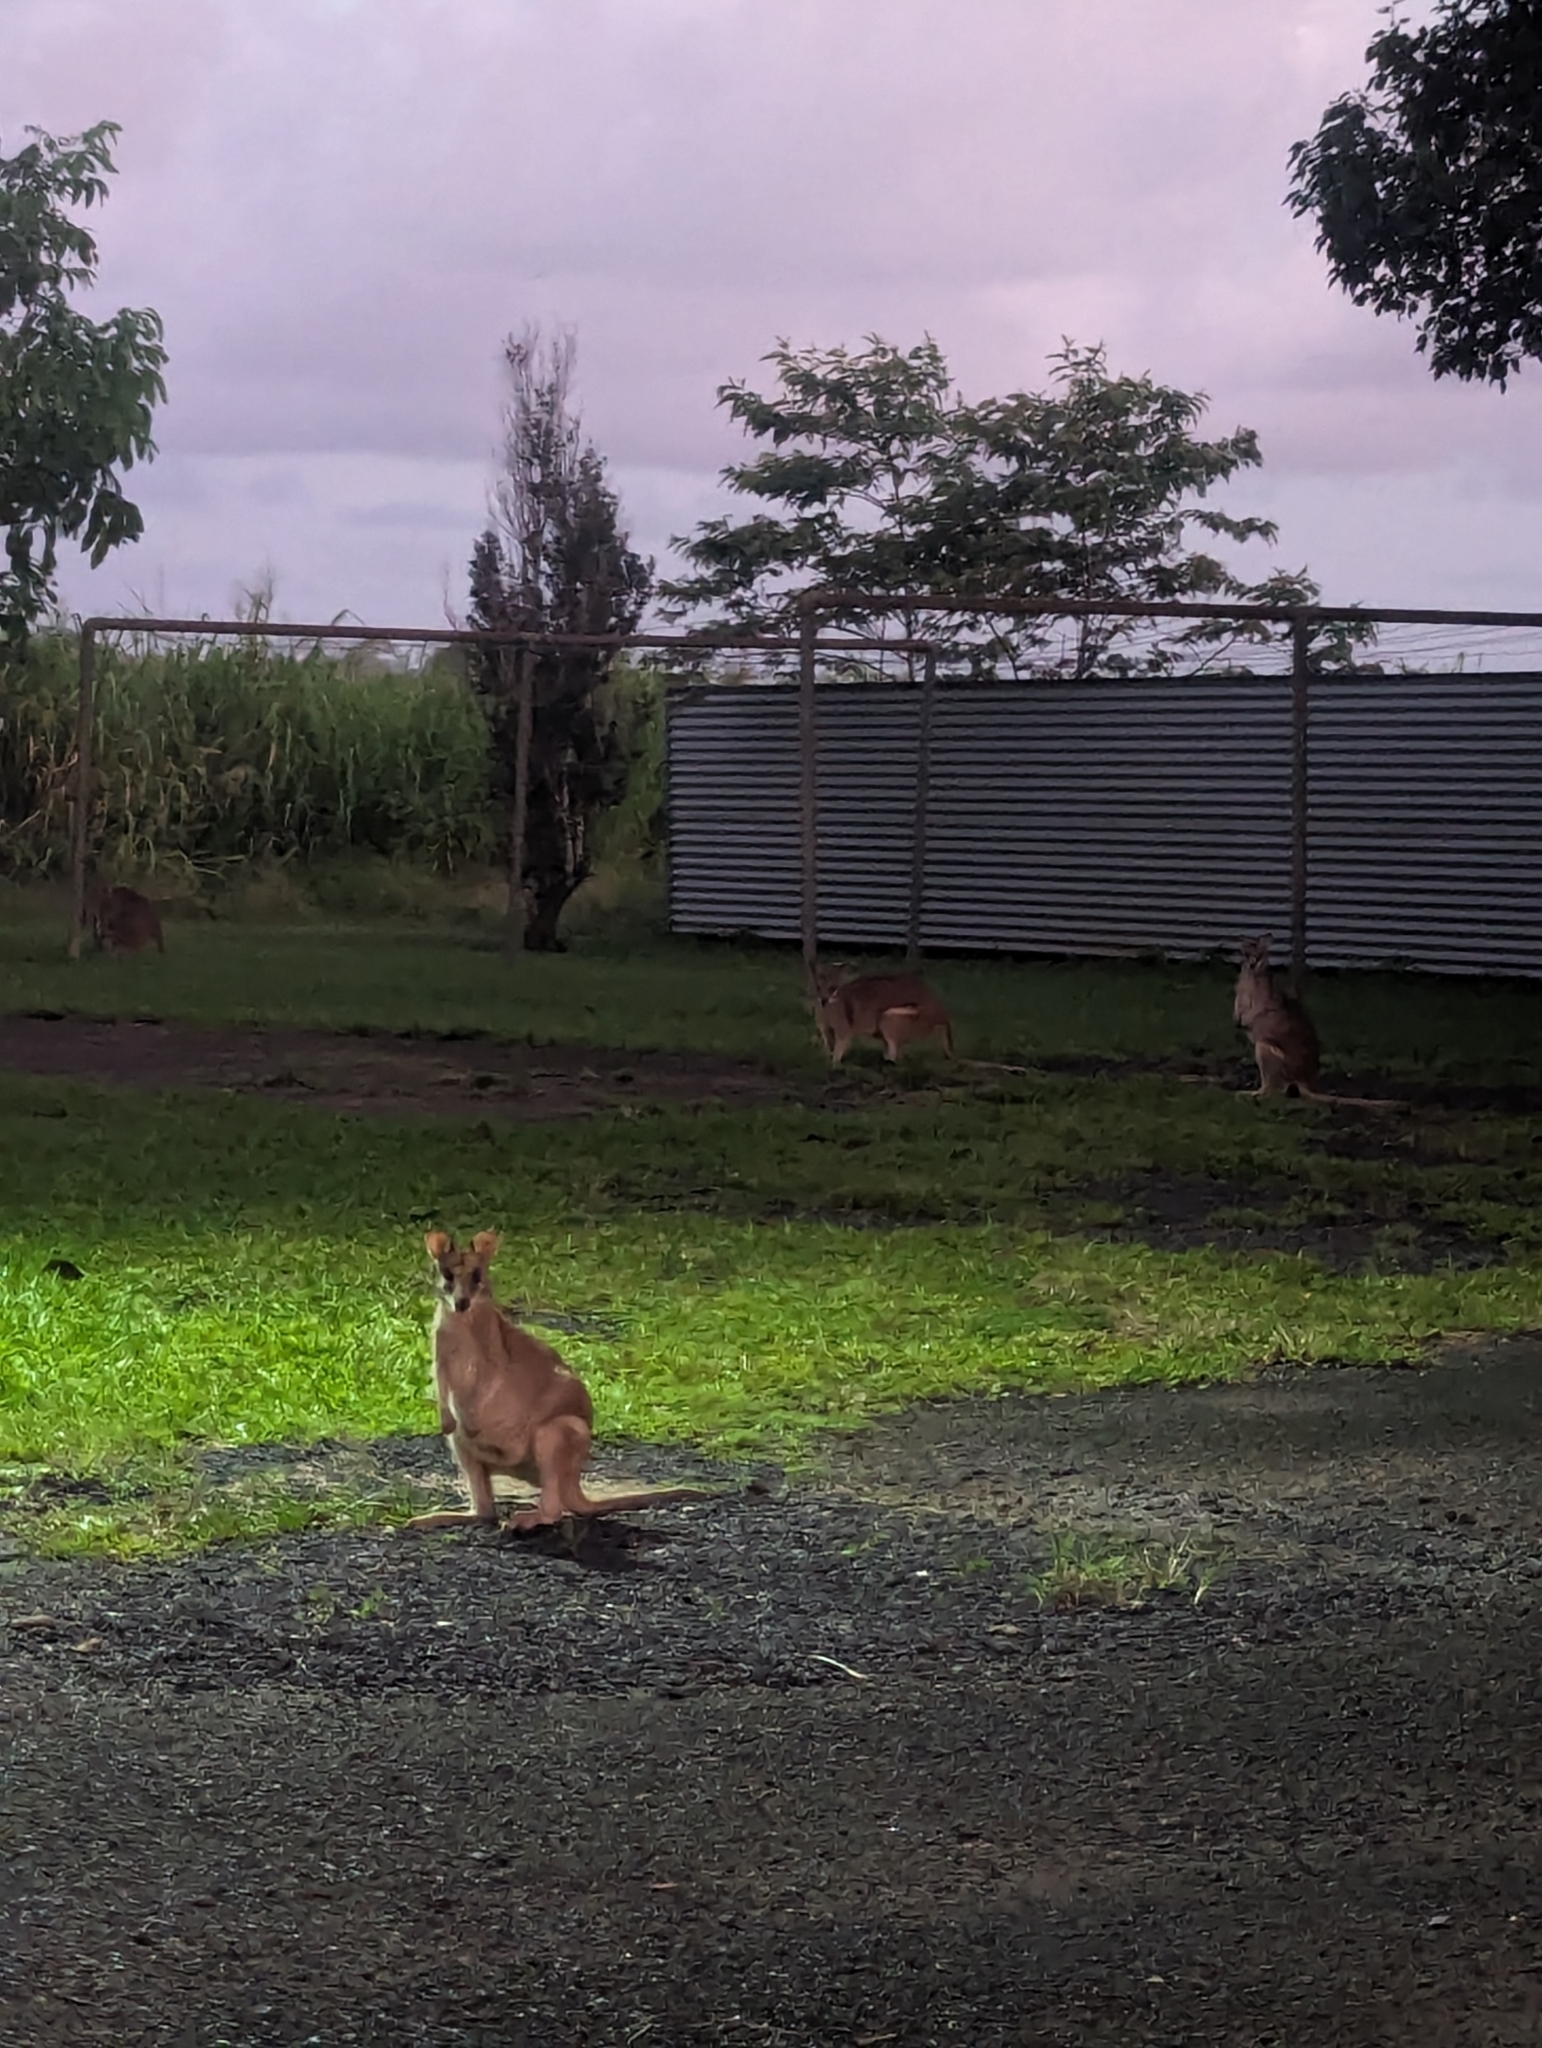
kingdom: Animalia
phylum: Chordata
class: Mammalia
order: Diprotodontia
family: Macropodidae
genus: Macropus
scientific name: Macropus agilis
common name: Agile wallaby
